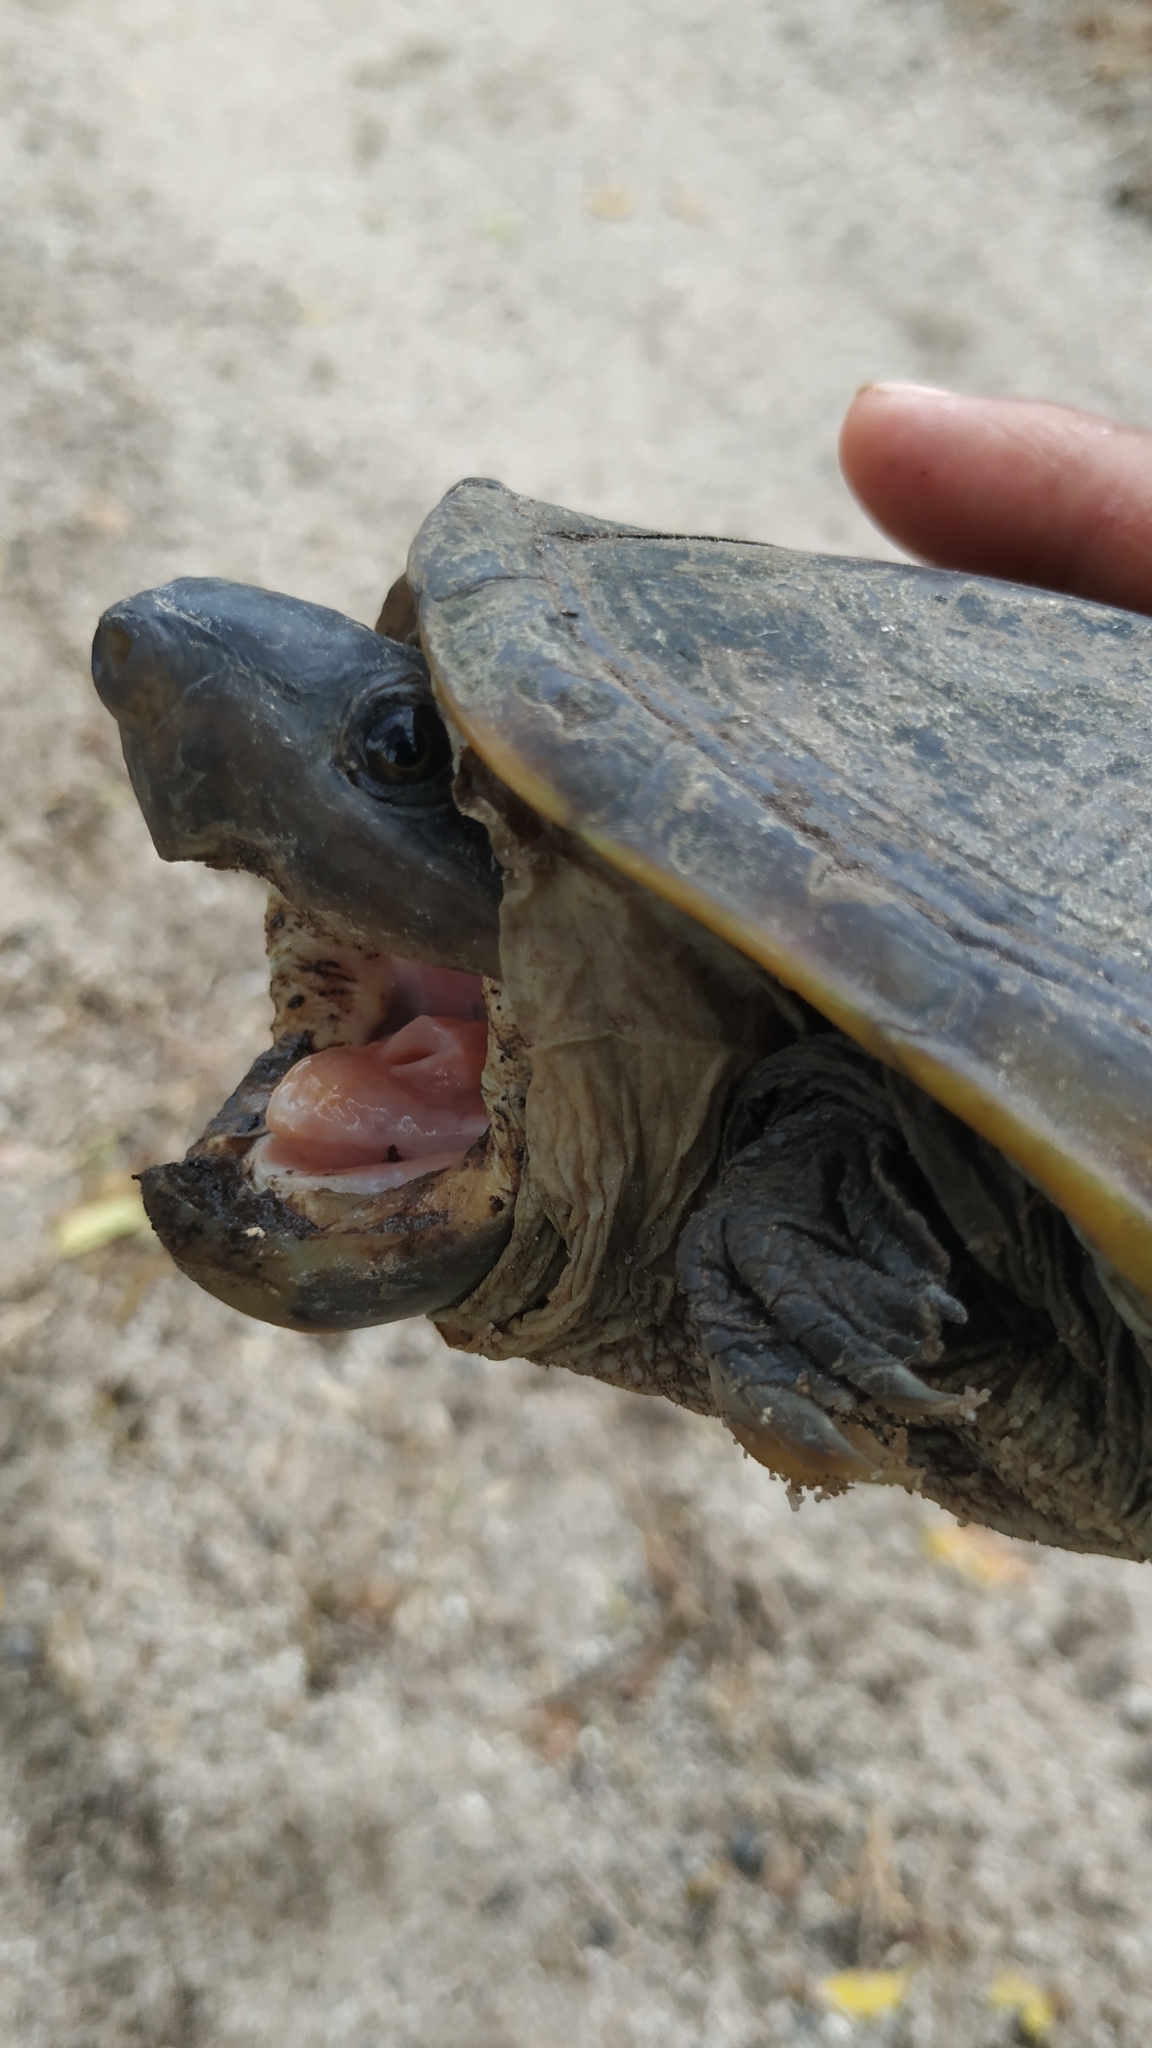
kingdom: Animalia
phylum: Chordata
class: Testudines
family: Kinosternidae
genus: Staurotypus
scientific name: Staurotypus salvinii
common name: Chiapas giant musk turtle
